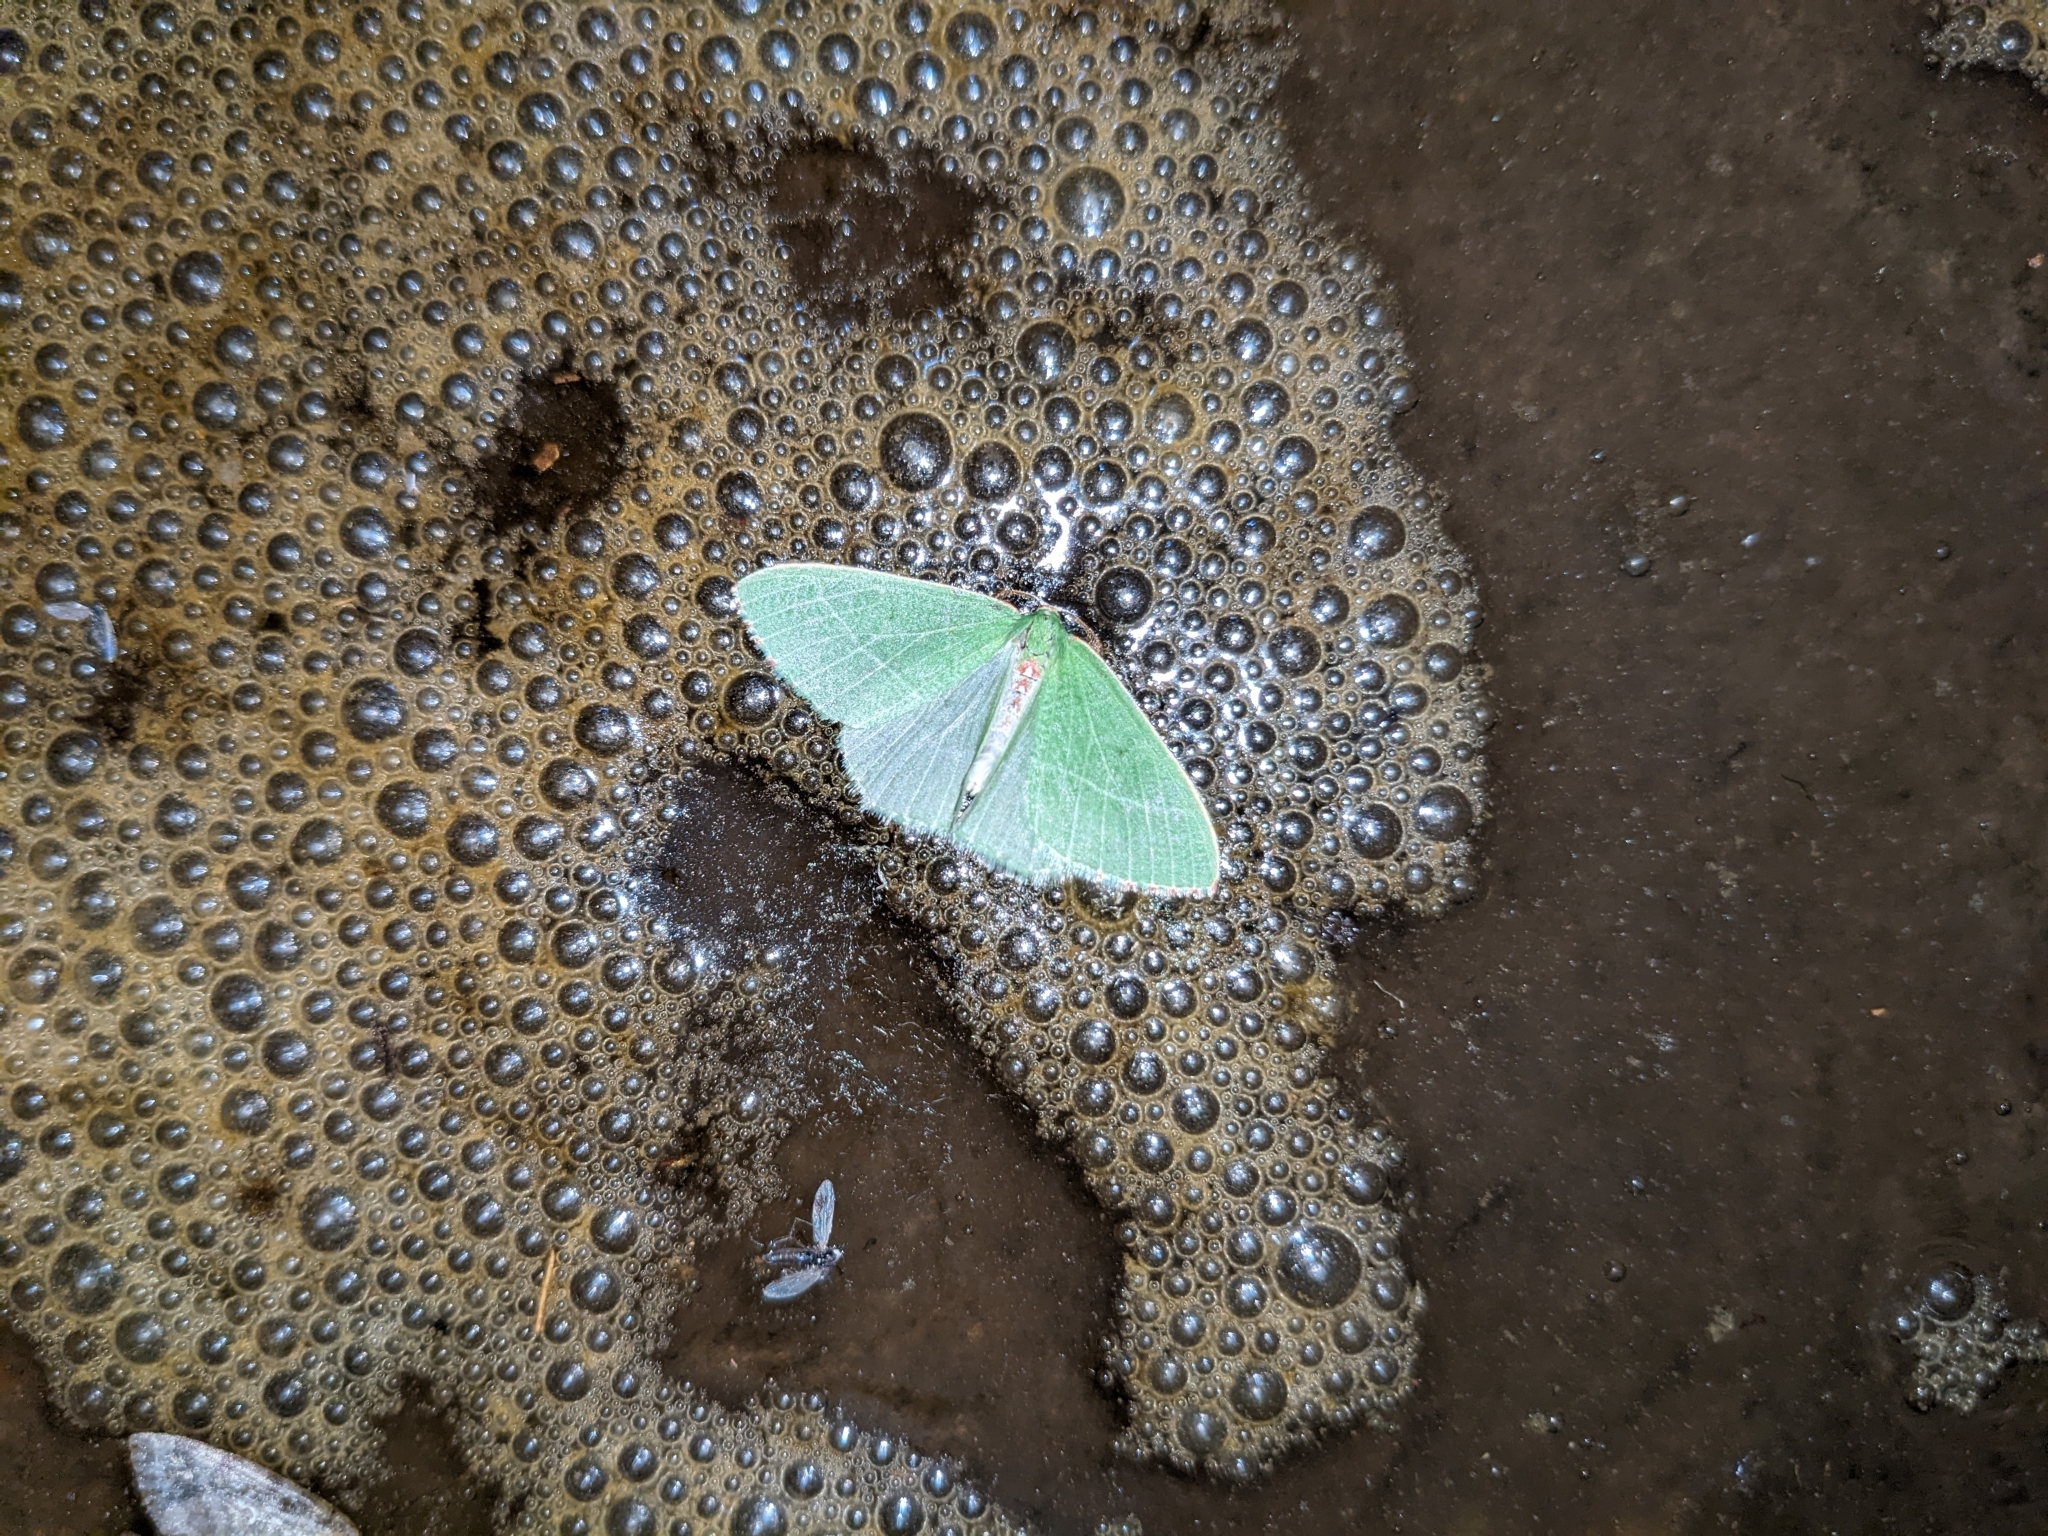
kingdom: Animalia
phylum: Arthropoda
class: Insecta
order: Lepidoptera
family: Geometridae
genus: Nemoria
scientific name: Nemoria pulcherrima
